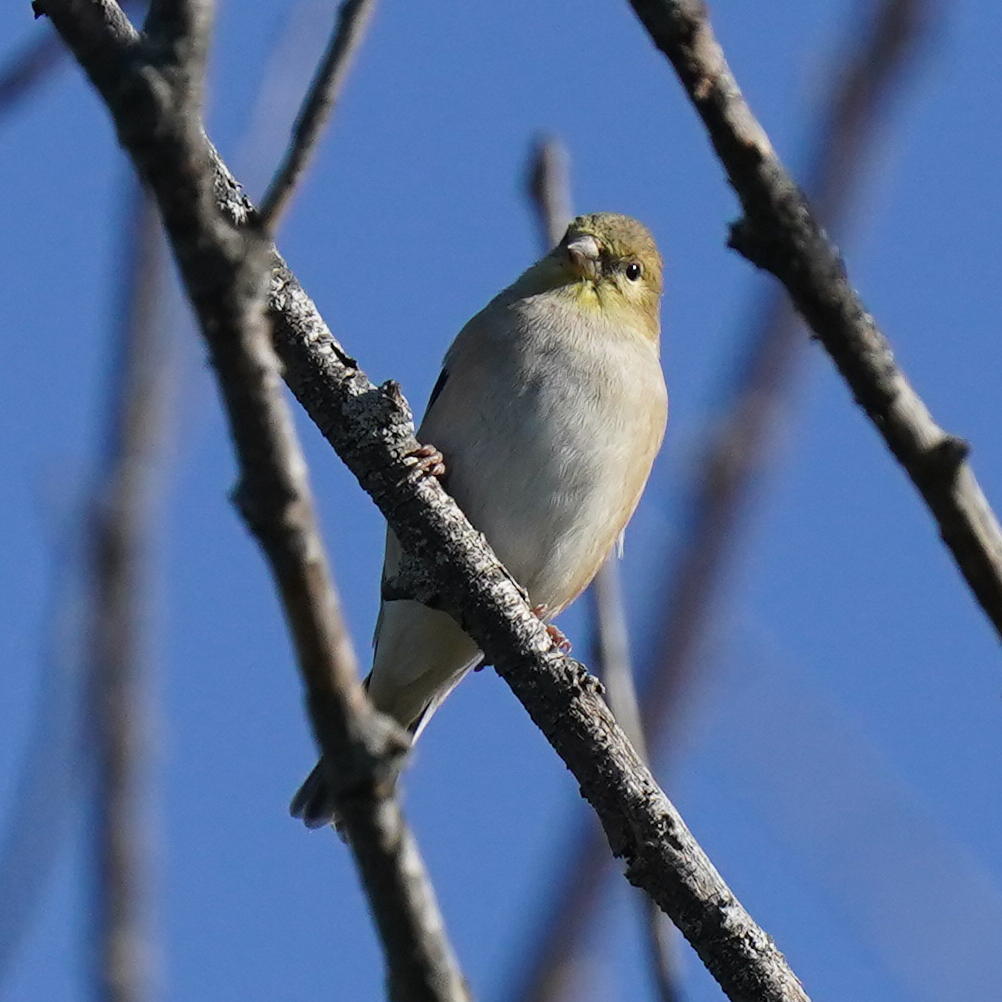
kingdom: Animalia
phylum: Chordata
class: Aves
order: Passeriformes
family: Fringillidae
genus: Spinus
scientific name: Spinus tristis
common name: American goldfinch
